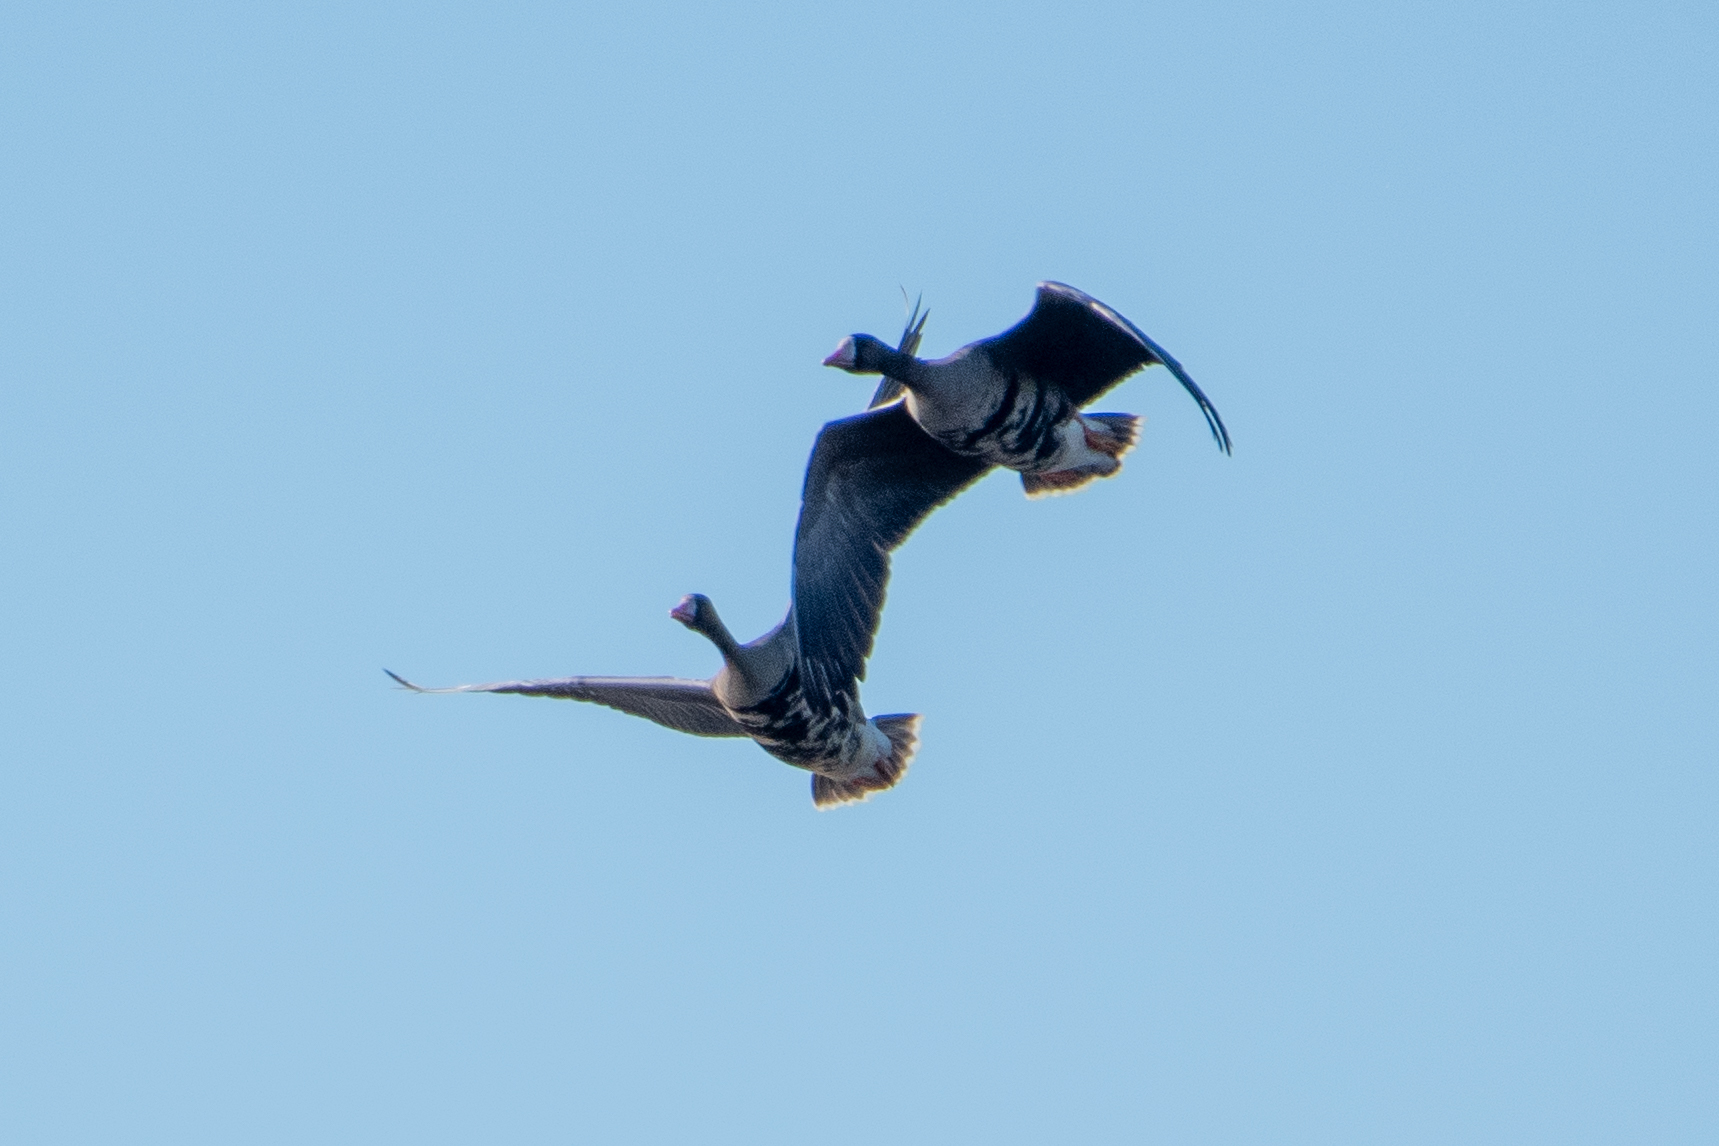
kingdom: Animalia
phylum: Chordata
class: Aves
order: Anseriformes
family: Anatidae
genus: Anser
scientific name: Anser albifrons
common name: Greater white-fronted goose
